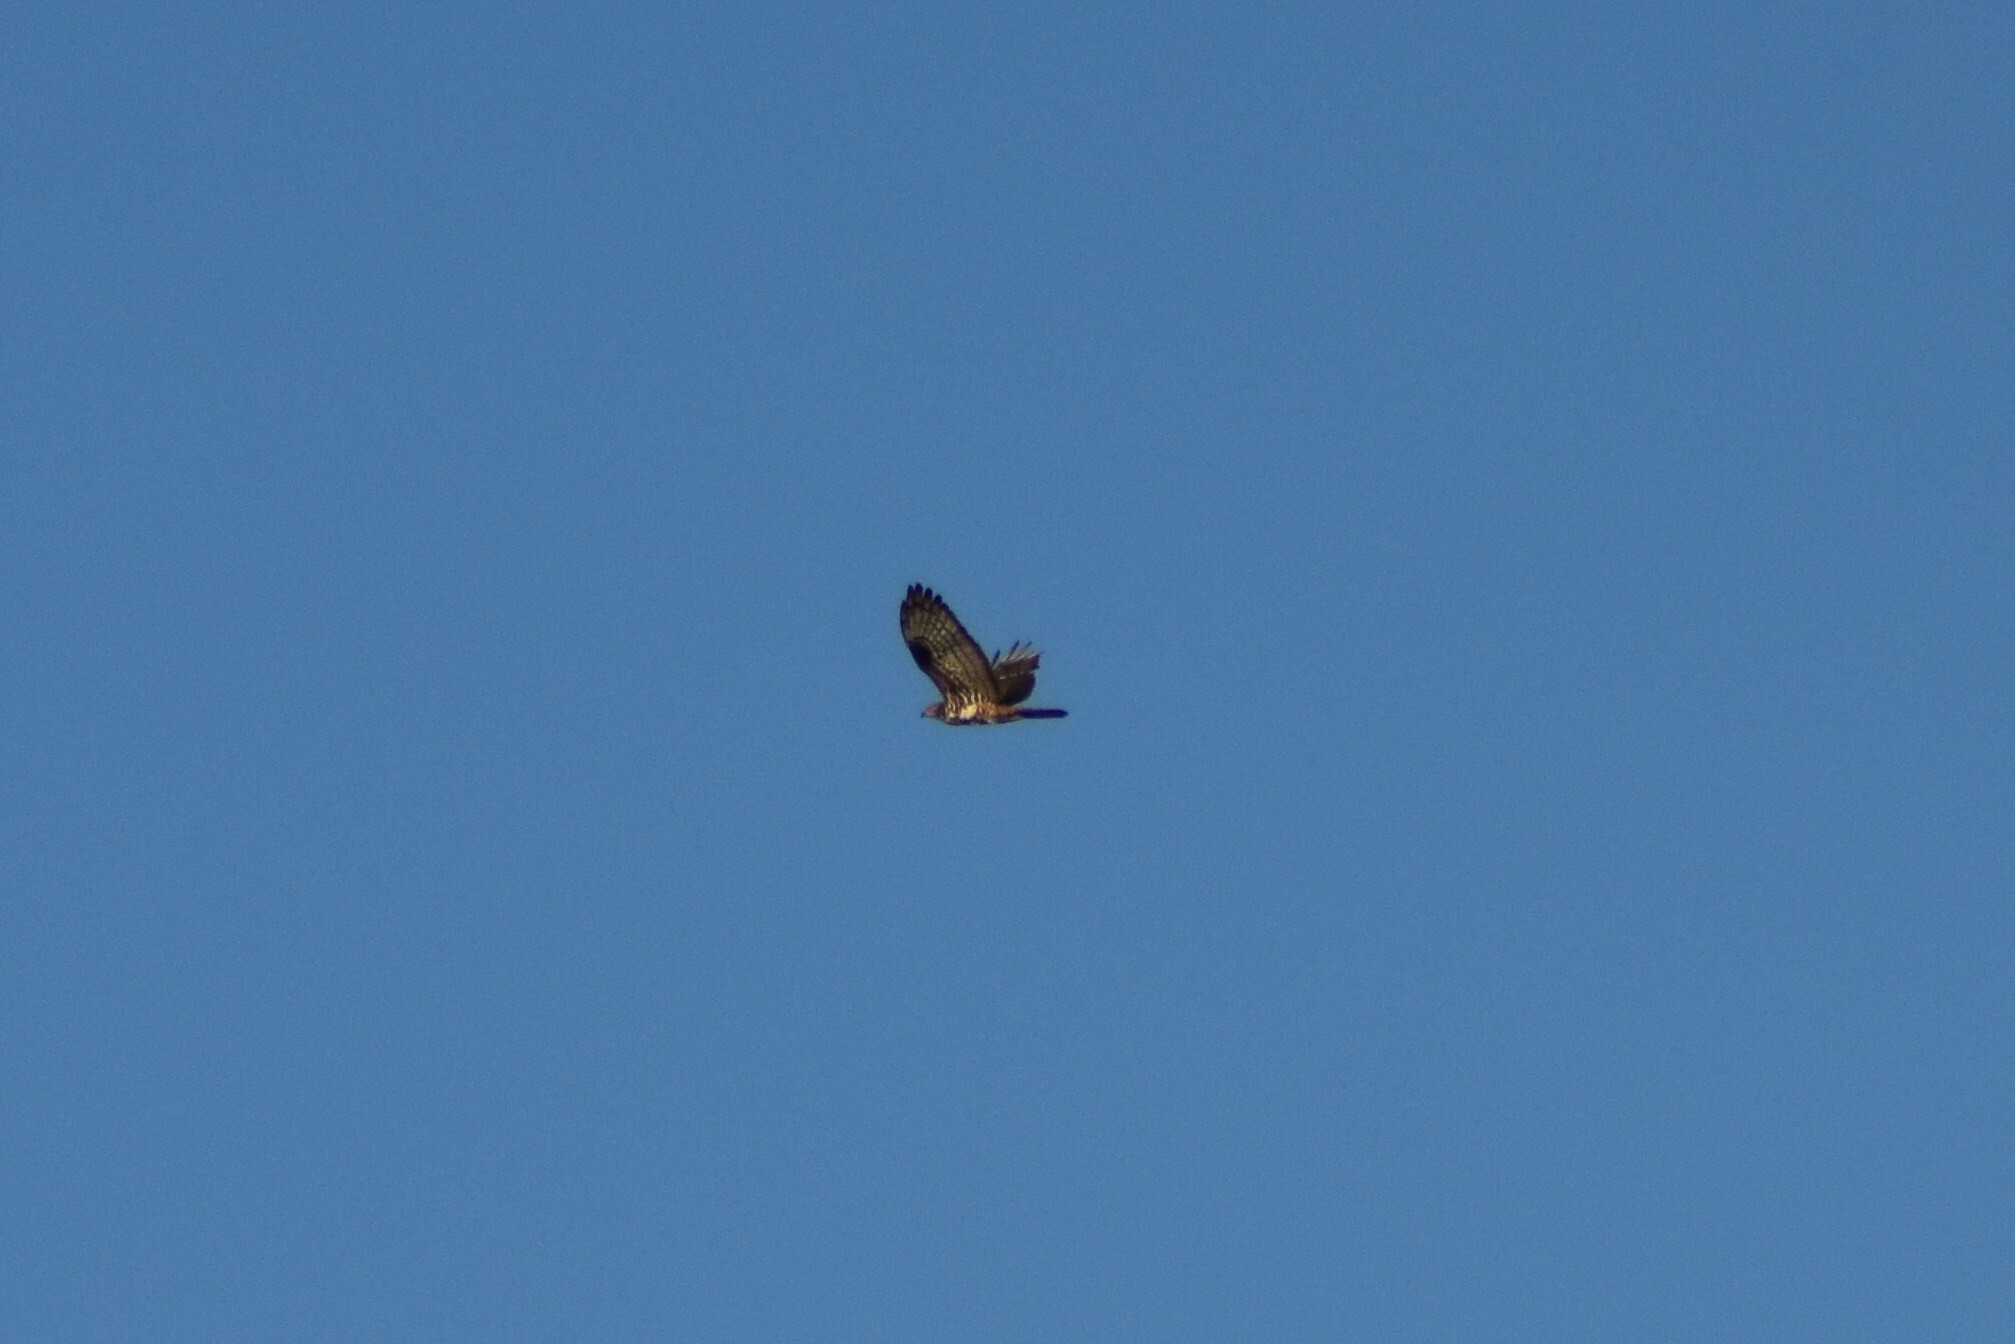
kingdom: Animalia
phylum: Chordata
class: Aves
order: Accipitriformes
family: Accipitridae
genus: Pernis
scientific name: Pernis apivorus
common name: European honey buzzard
